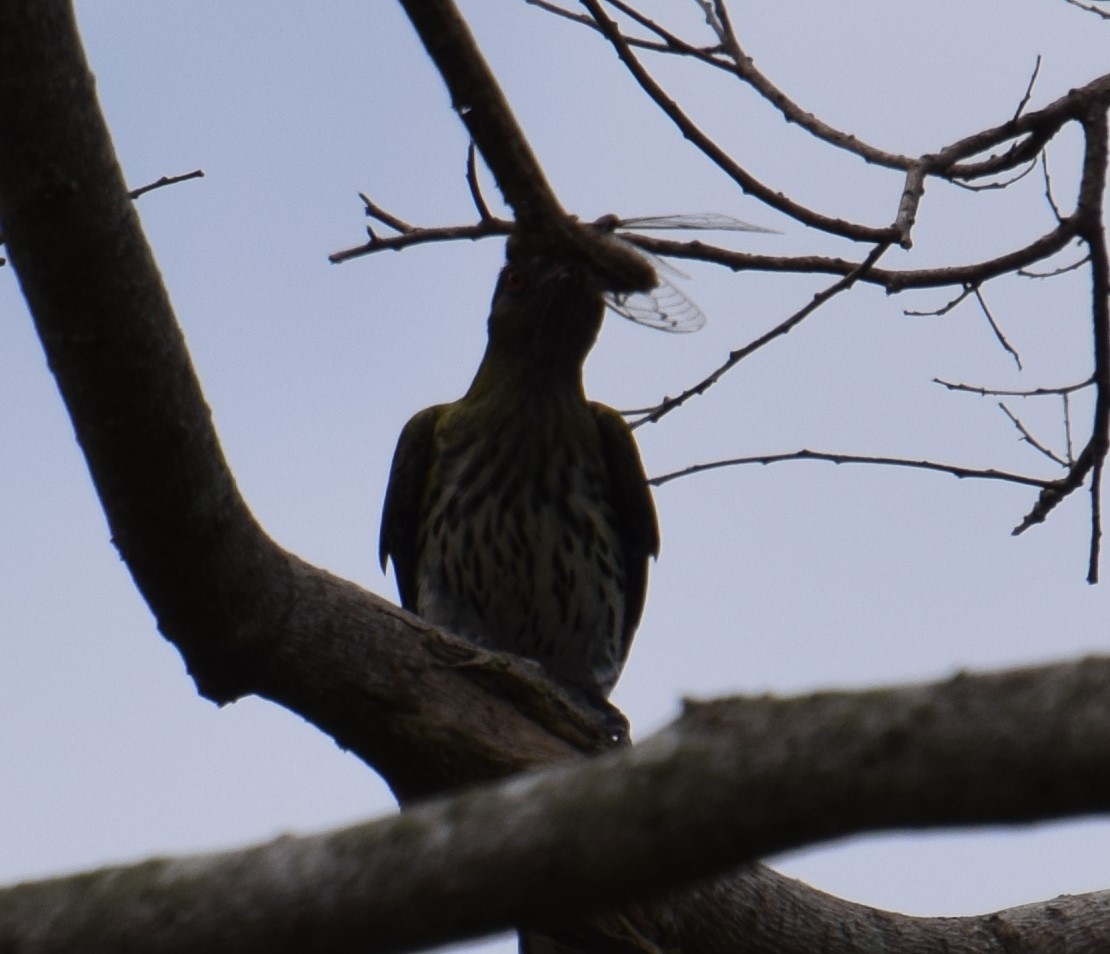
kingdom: Animalia
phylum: Arthropoda
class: Insecta
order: Hemiptera
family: Cicadidae
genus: Arunta
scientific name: Arunta perulata
